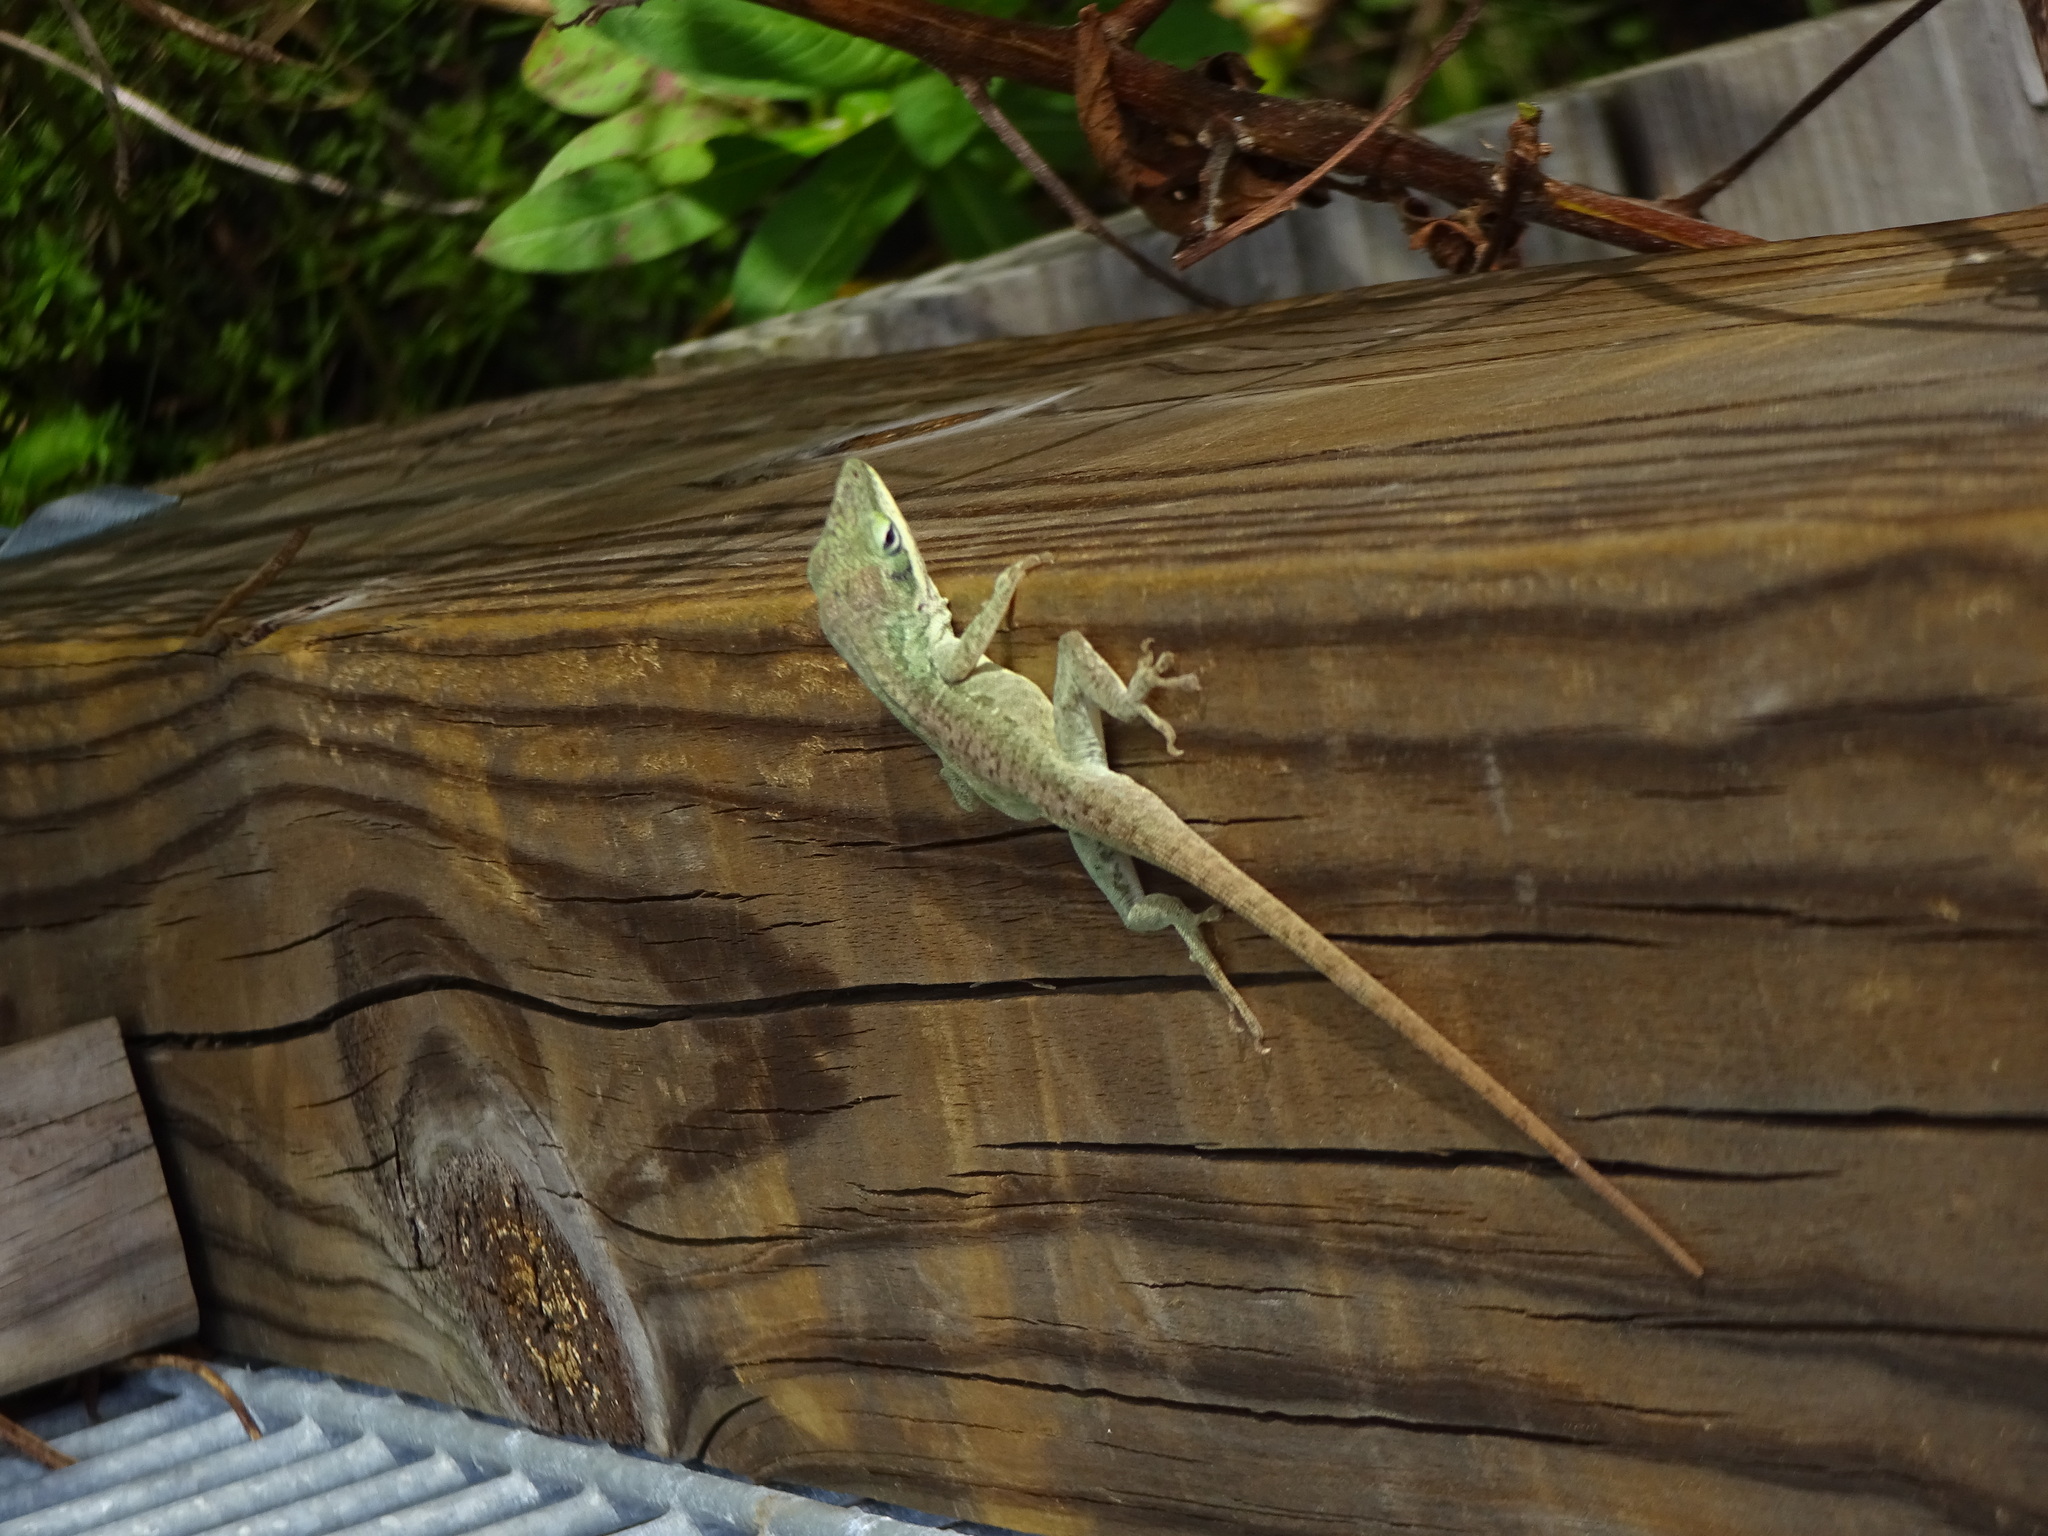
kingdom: Animalia
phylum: Chordata
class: Squamata
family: Dactyloidae
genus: Anolis
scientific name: Anolis carolinensis
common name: Green anole
